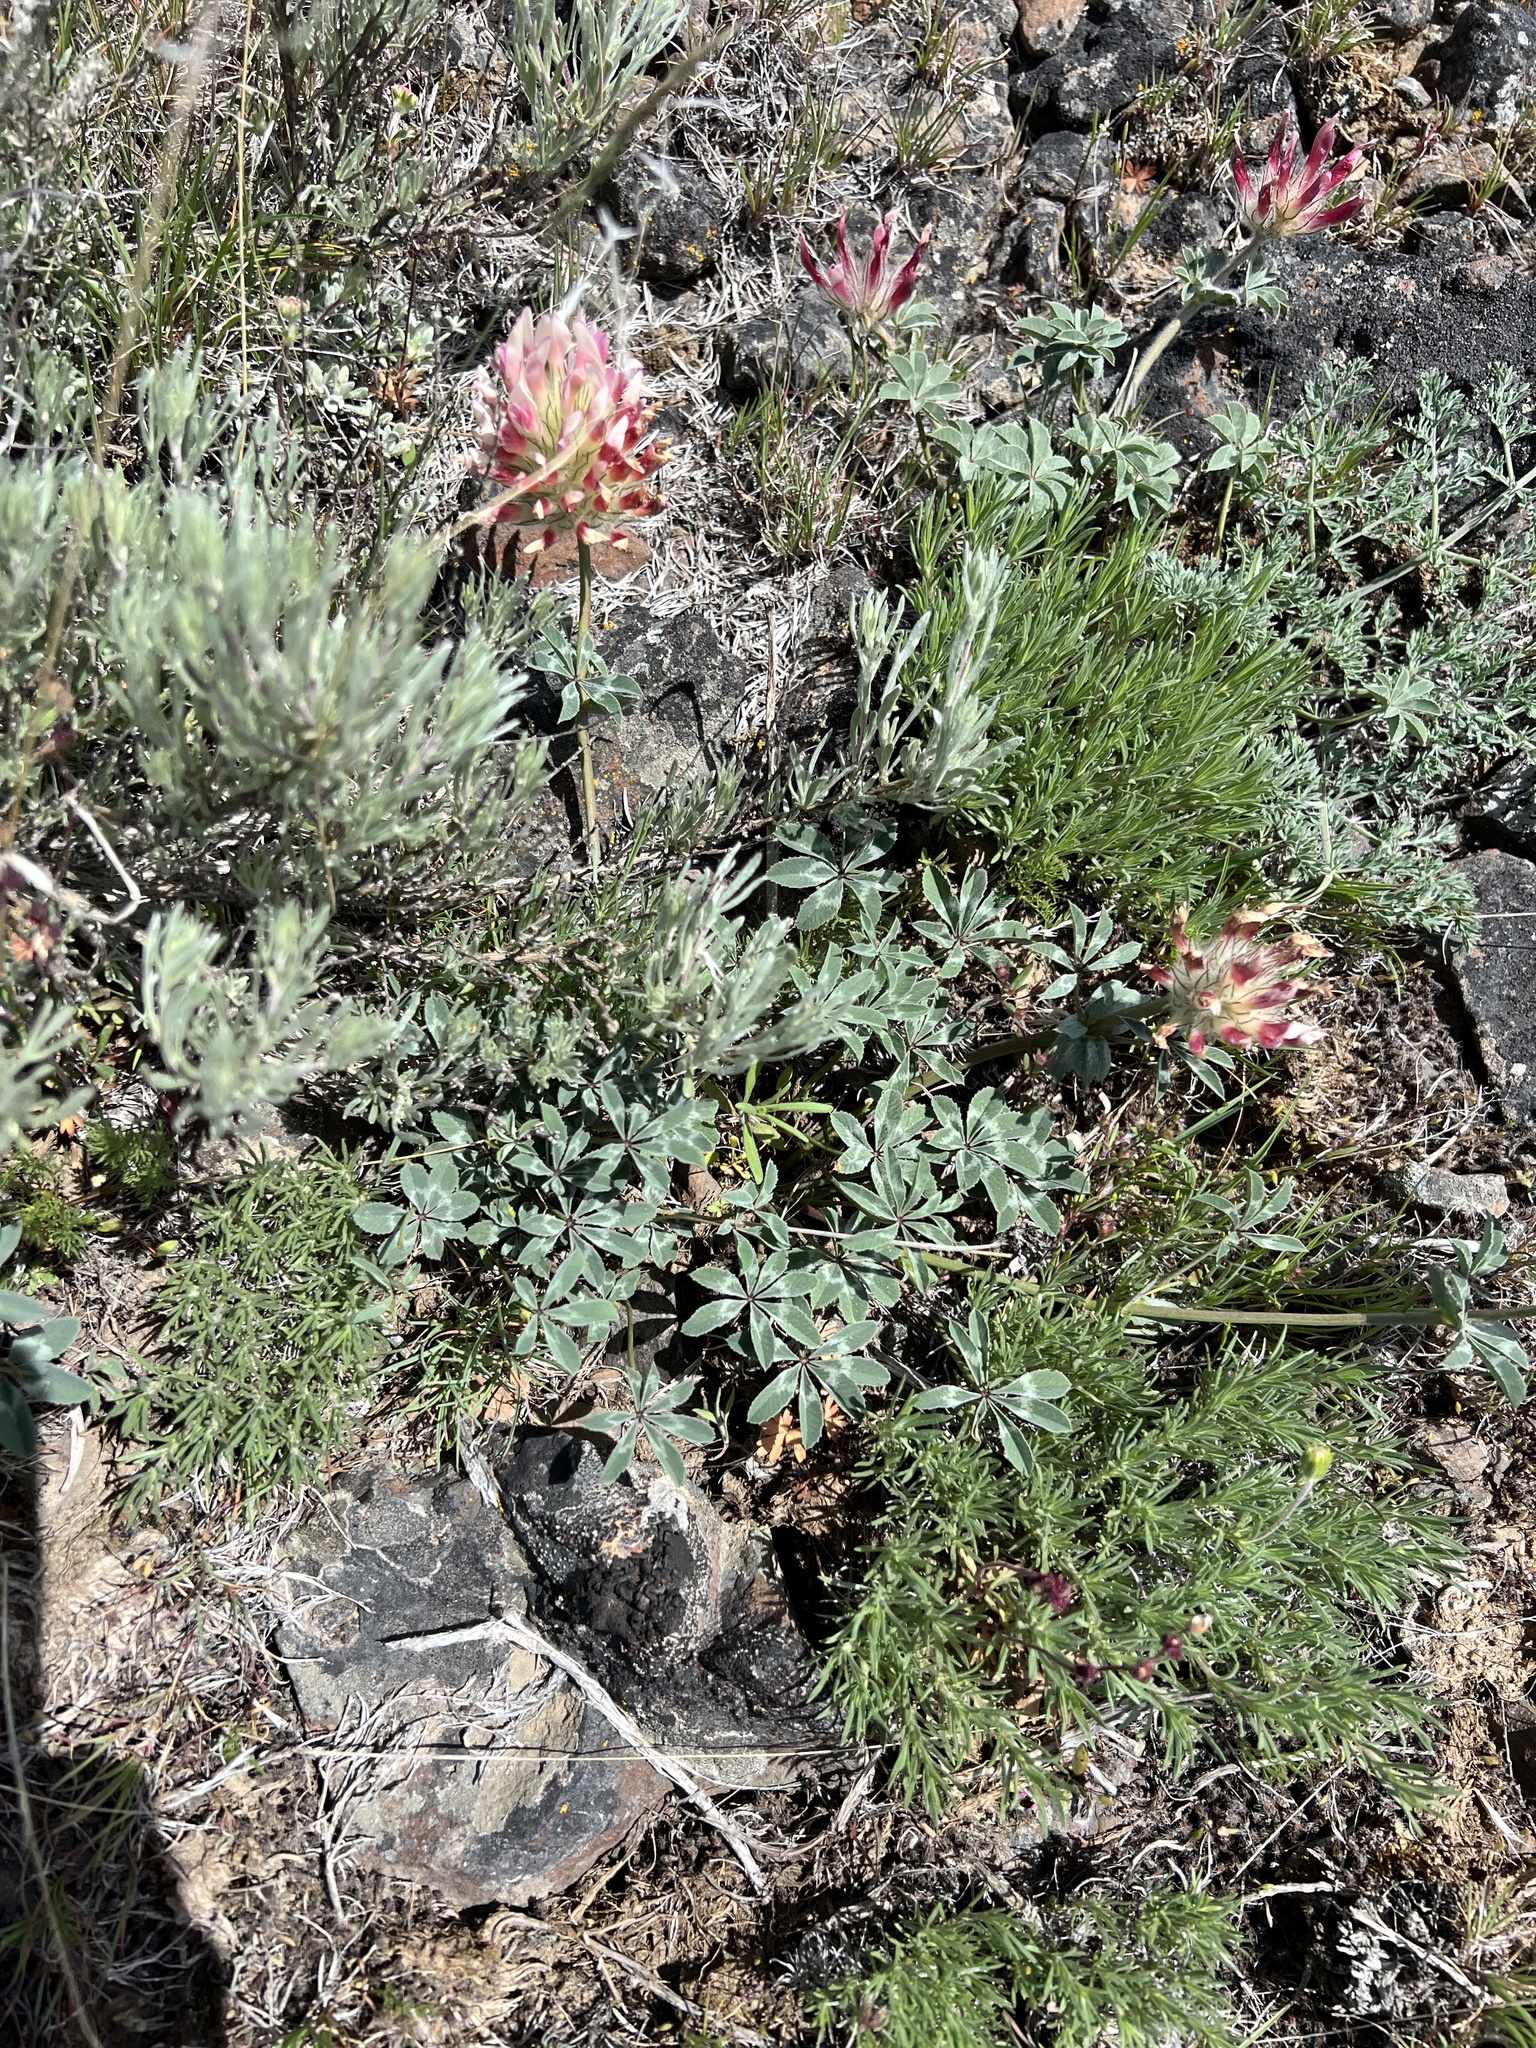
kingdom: Plantae
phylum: Tracheophyta
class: Magnoliopsida
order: Fabales
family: Fabaceae
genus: Trifolium
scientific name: Trifolium macrocephalum
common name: Large-head clover
